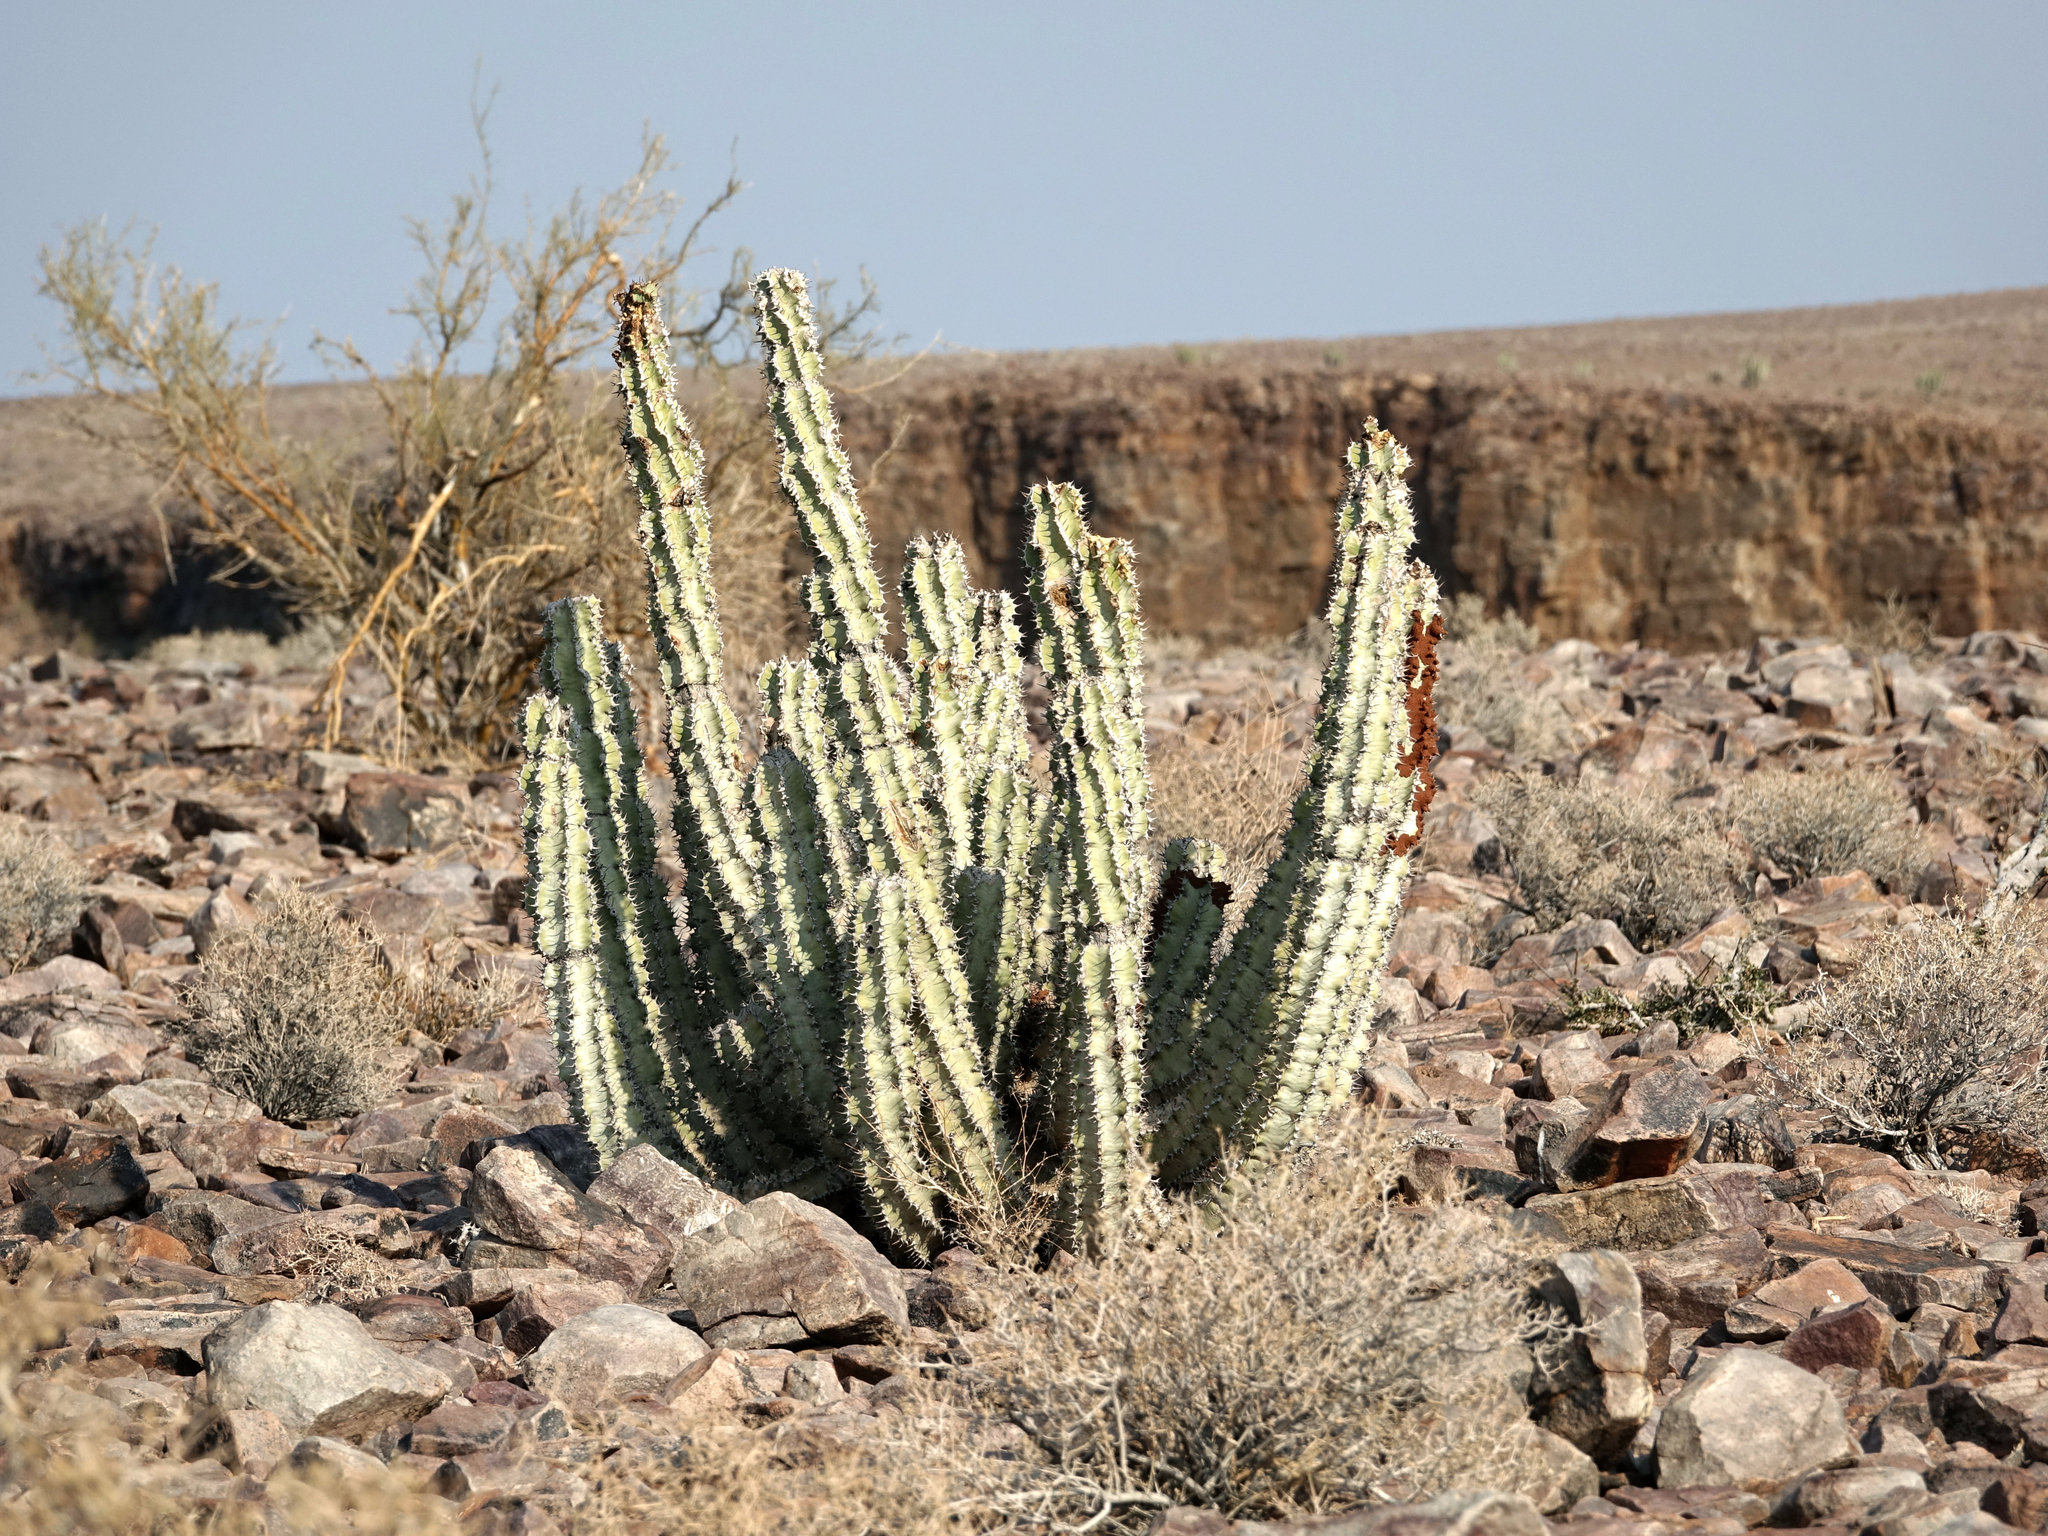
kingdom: Plantae
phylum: Tracheophyta
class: Magnoliopsida
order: Malpighiales
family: Euphorbiaceae
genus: Euphorbia
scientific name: Euphorbia virosa
